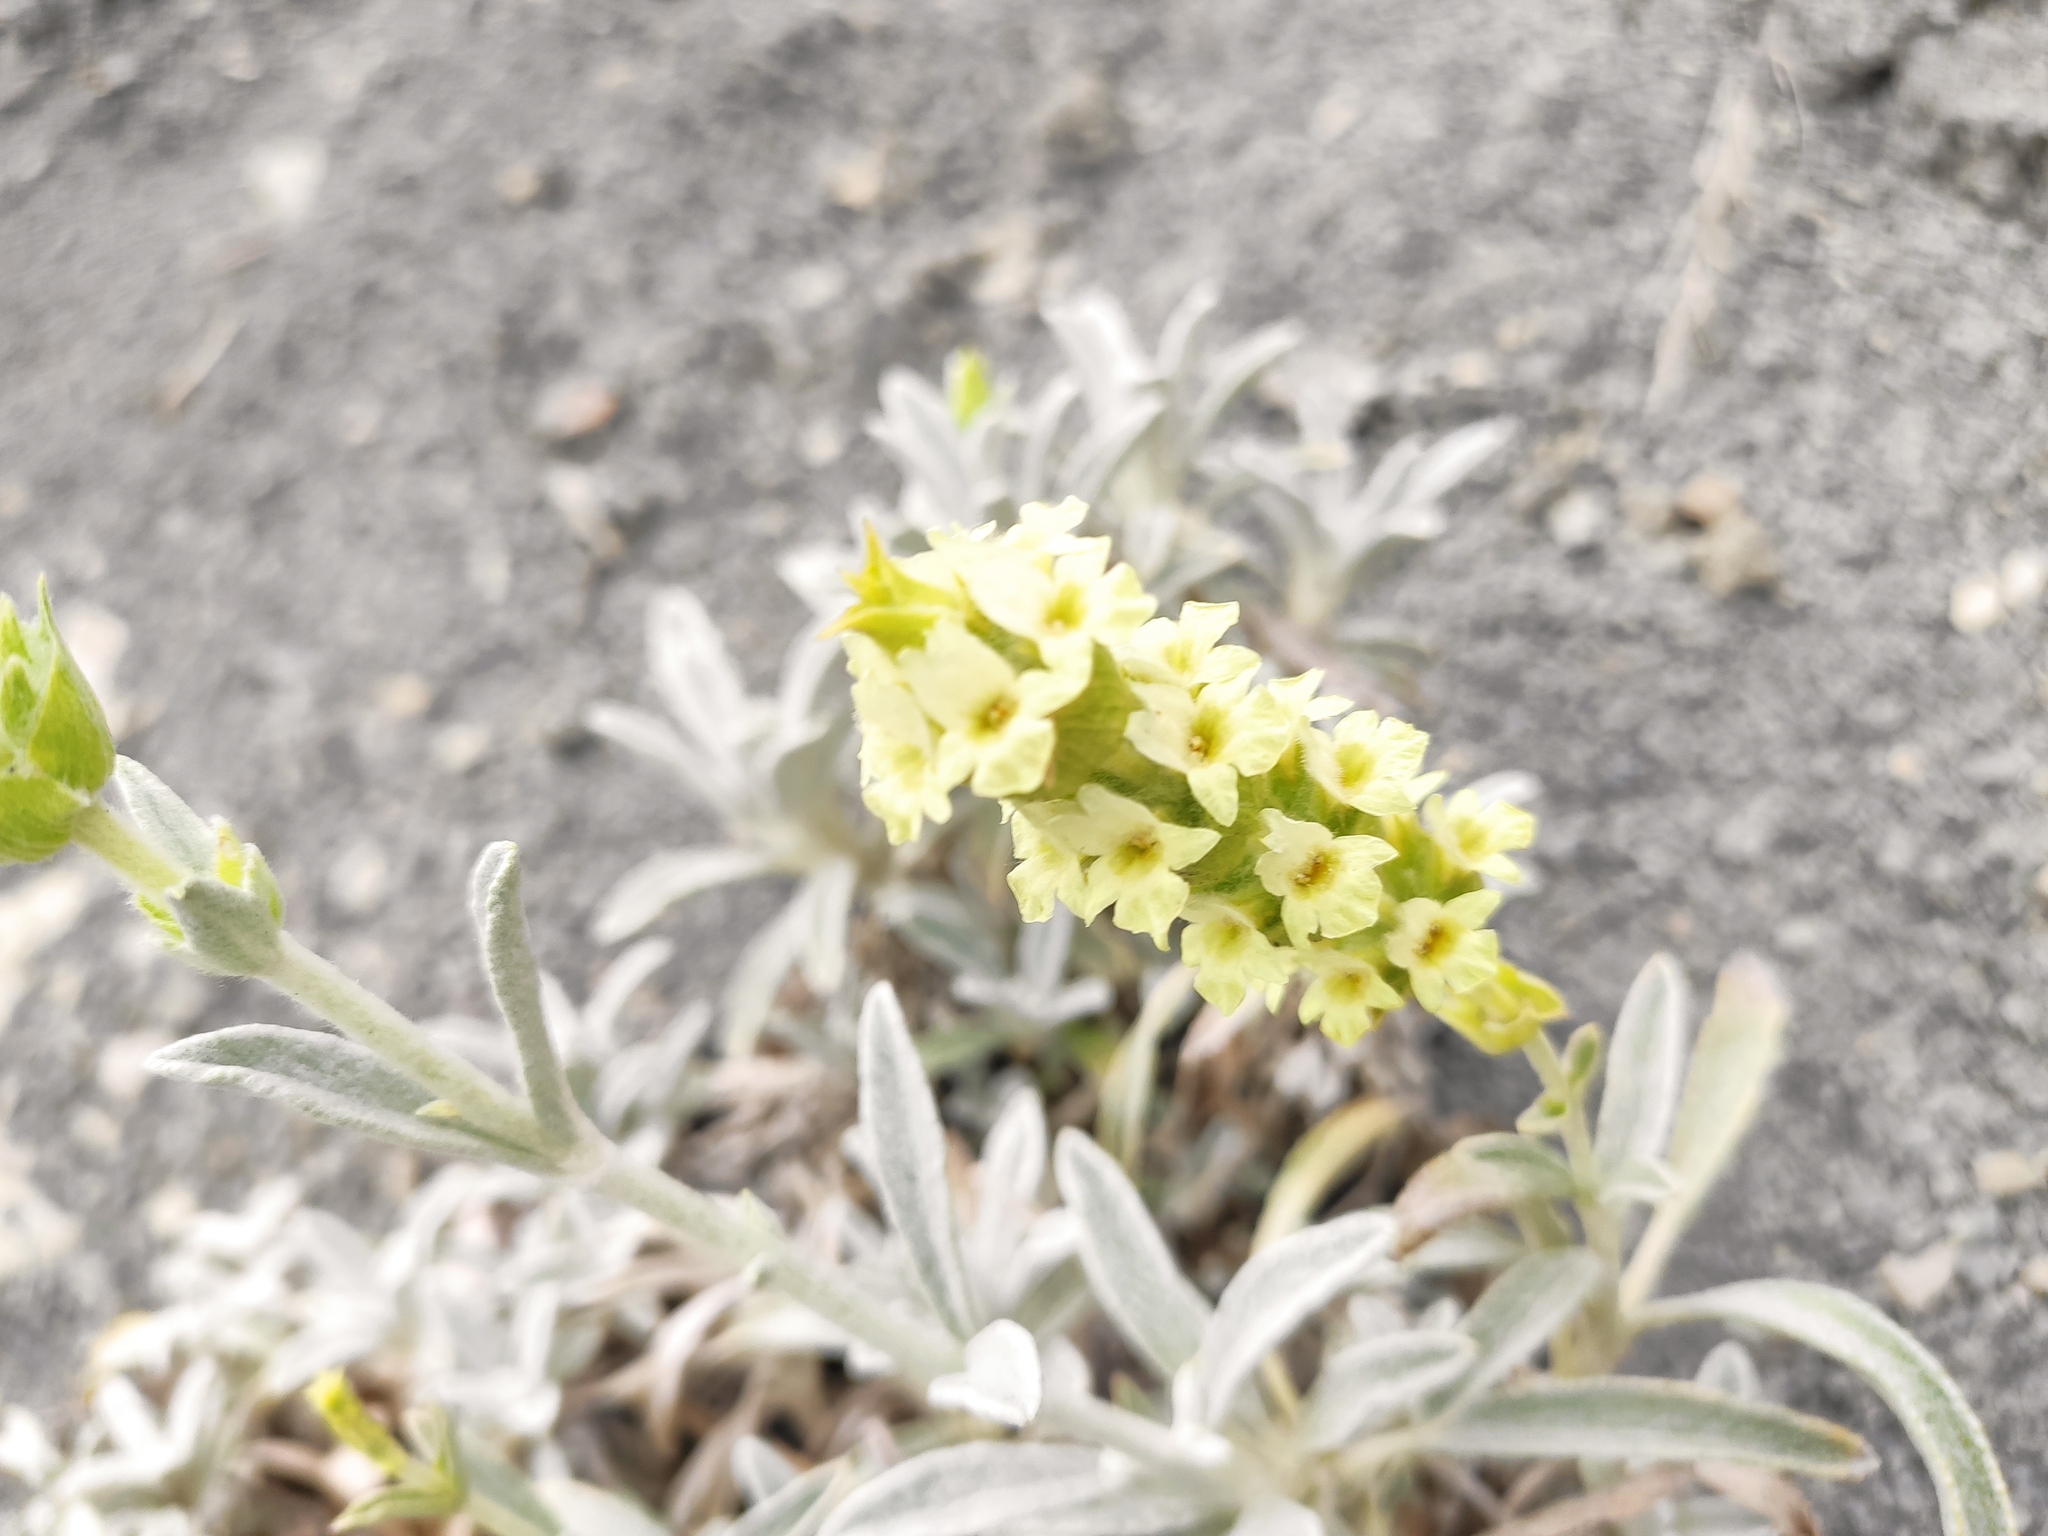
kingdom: Plantae
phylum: Tracheophyta
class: Magnoliopsida
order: Lamiales
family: Lamiaceae
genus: Sideritis
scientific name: Sideritis euxina
